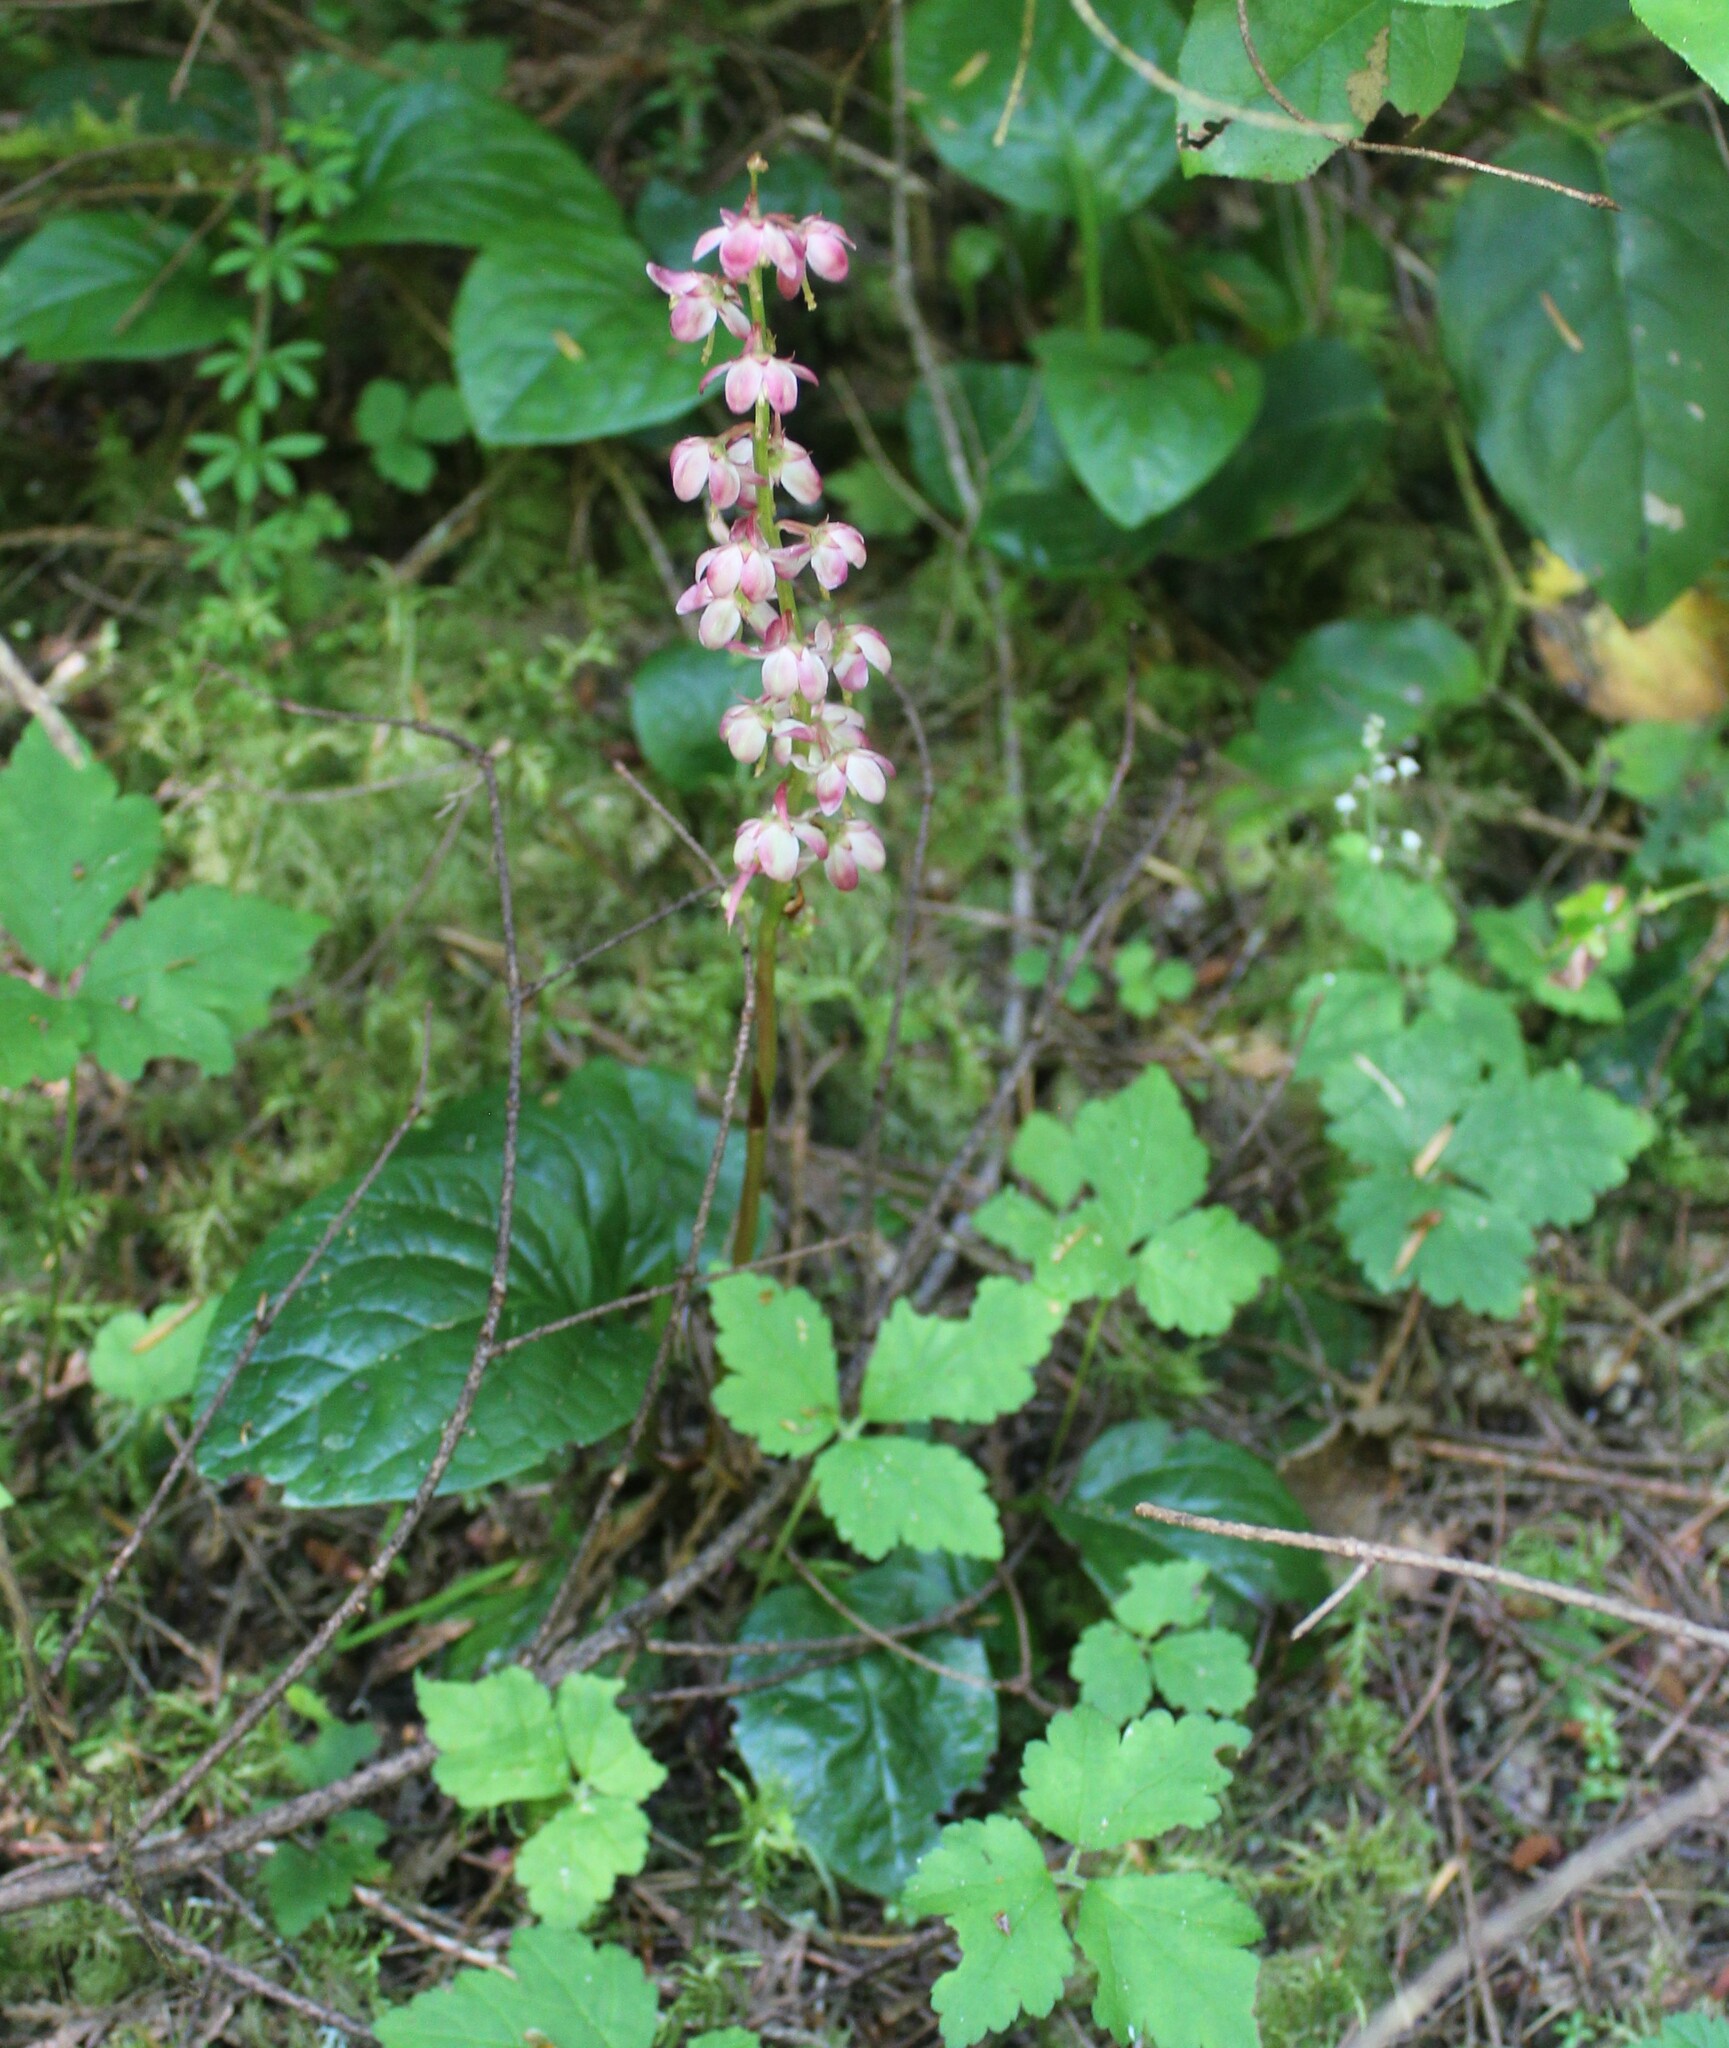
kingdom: Plantae
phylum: Tracheophyta
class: Magnoliopsida
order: Ericales
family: Ericaceae
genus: Pyrola
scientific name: Pyrola asarifolia
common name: Bog wintergreen
